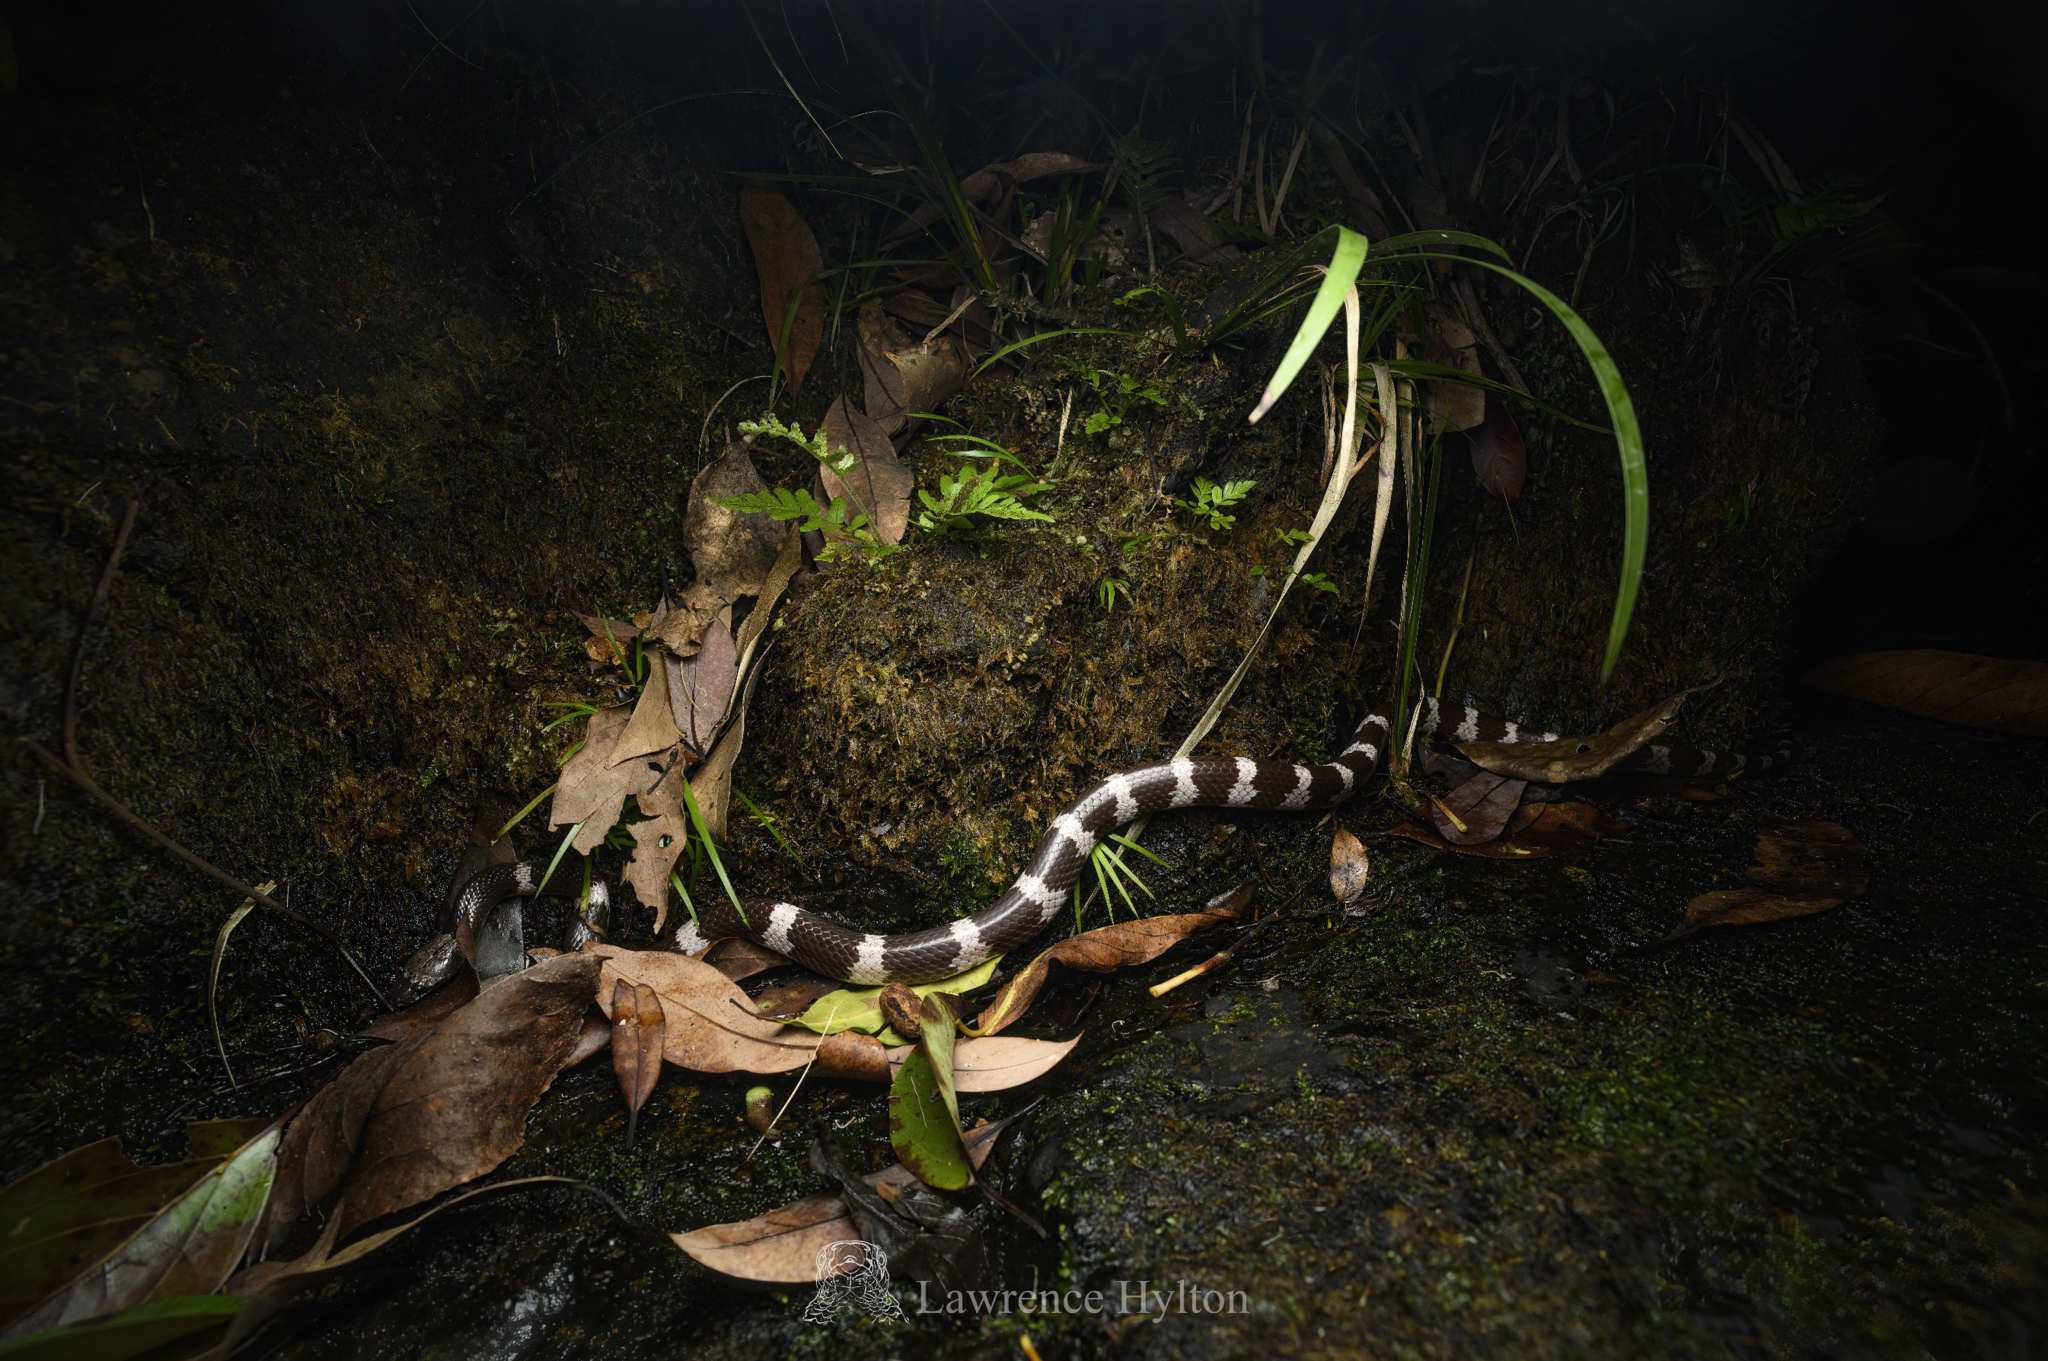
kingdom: Animalia
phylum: Chordata
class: Squamata
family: Colubridae
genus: Lycodon
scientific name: Lycodon futsingensis
